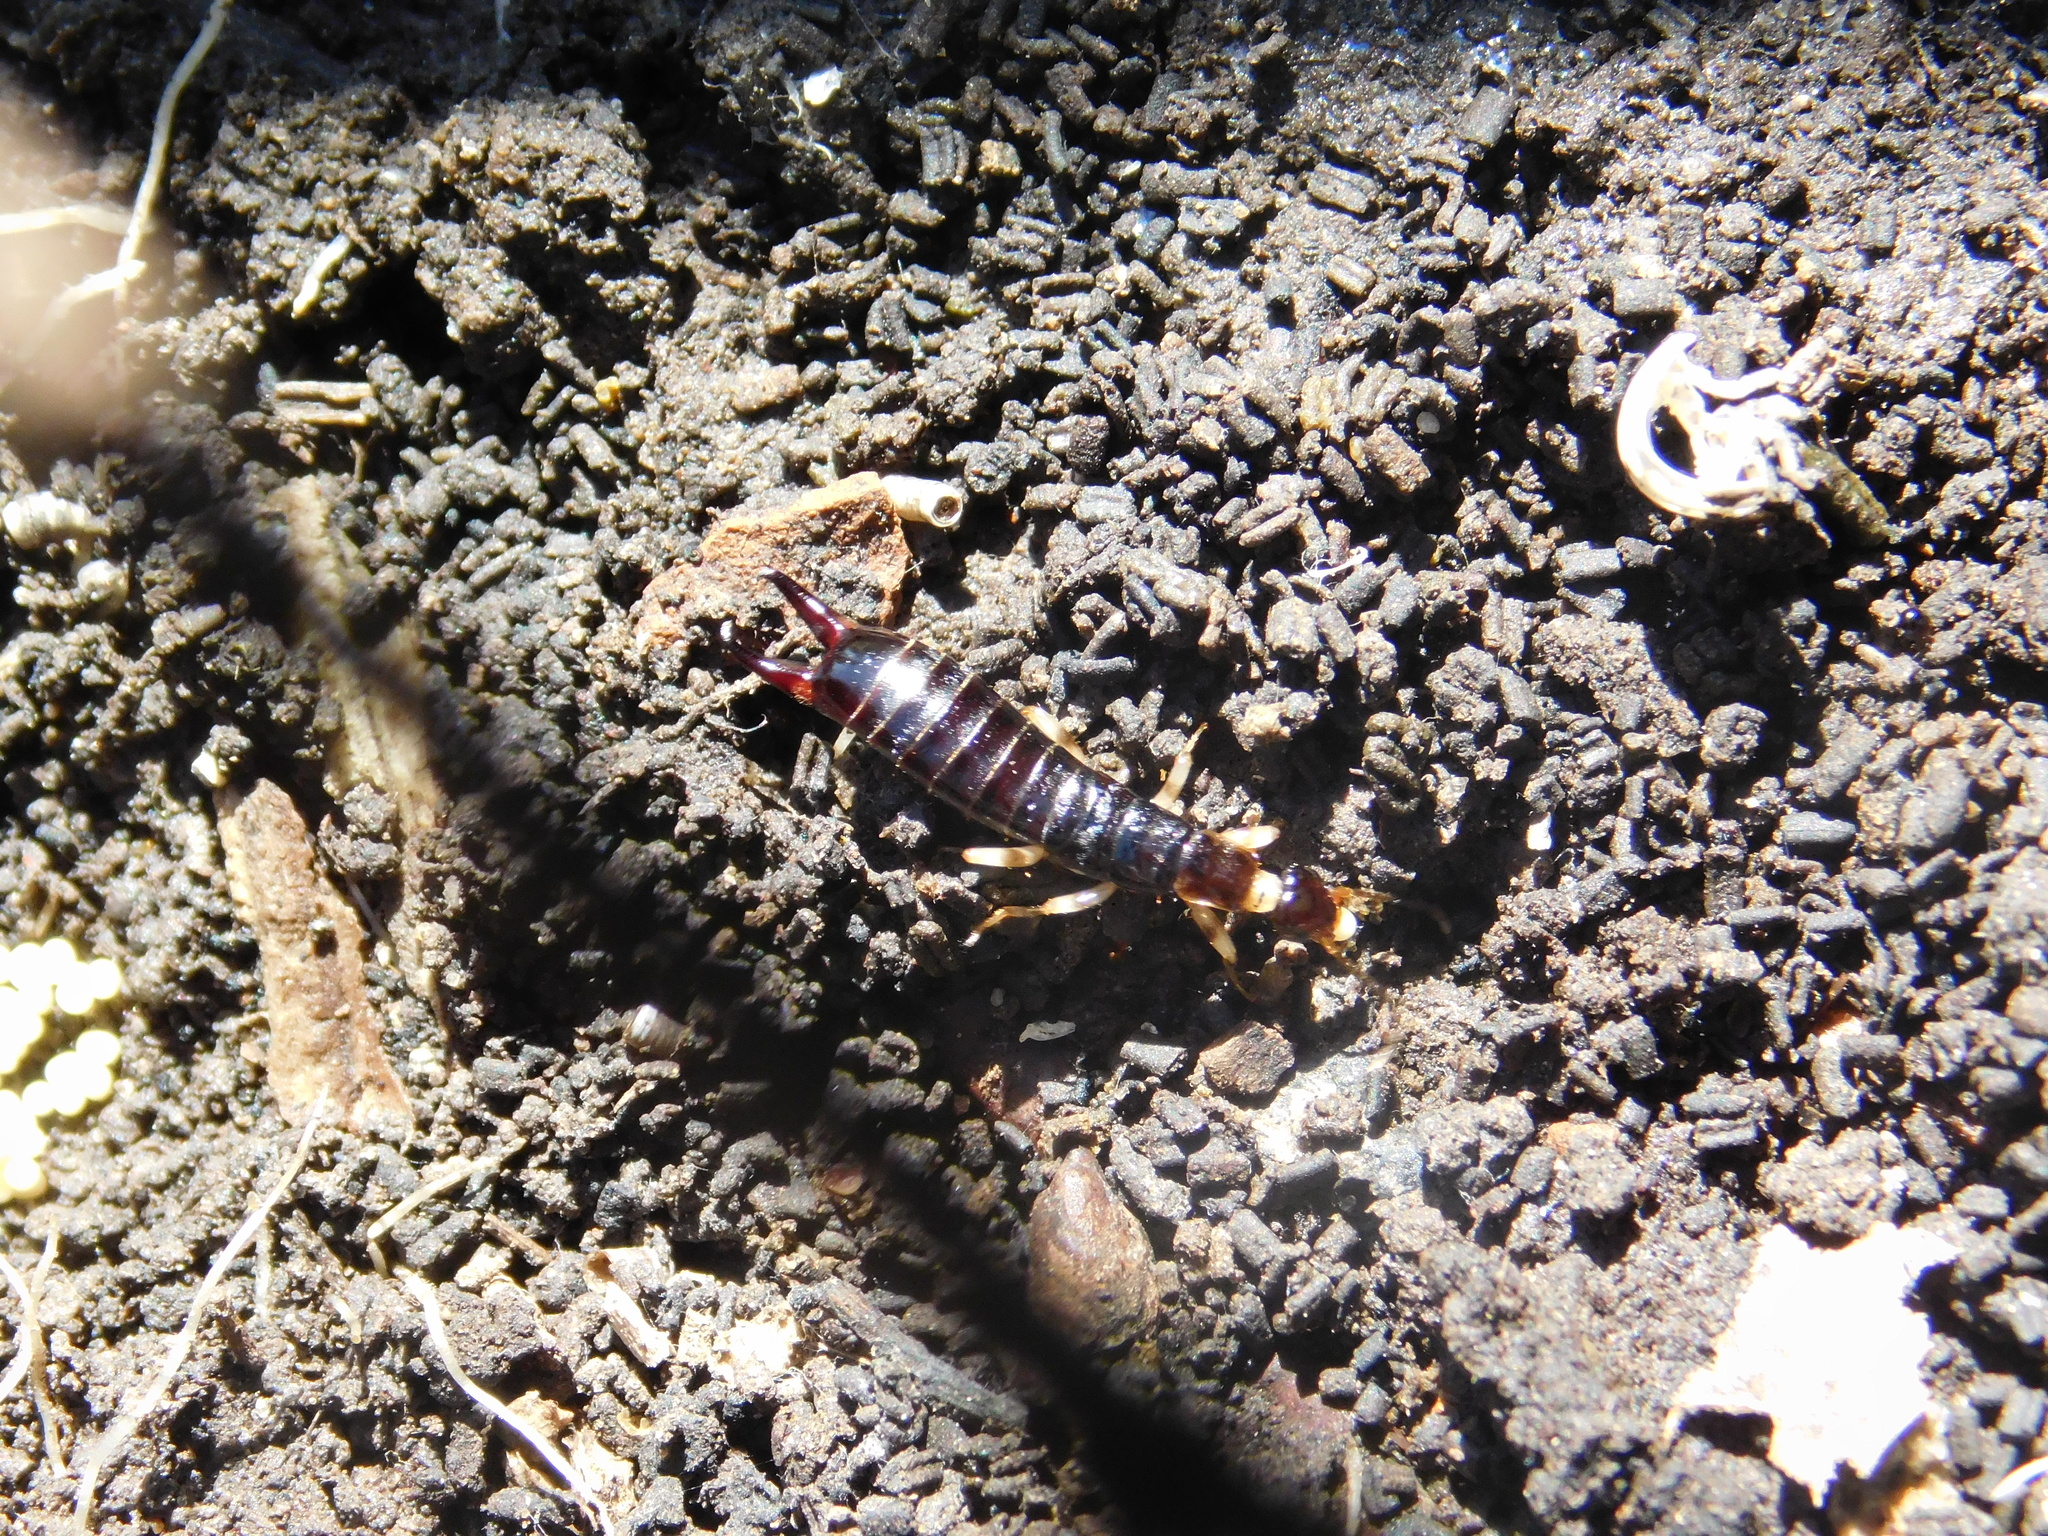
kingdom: Animalia
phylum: Arthropoda
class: Insecta
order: Dermaptera
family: Anisolabididae
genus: Euborellia
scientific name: Euborellia annulipes
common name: Ringlegged earwig
